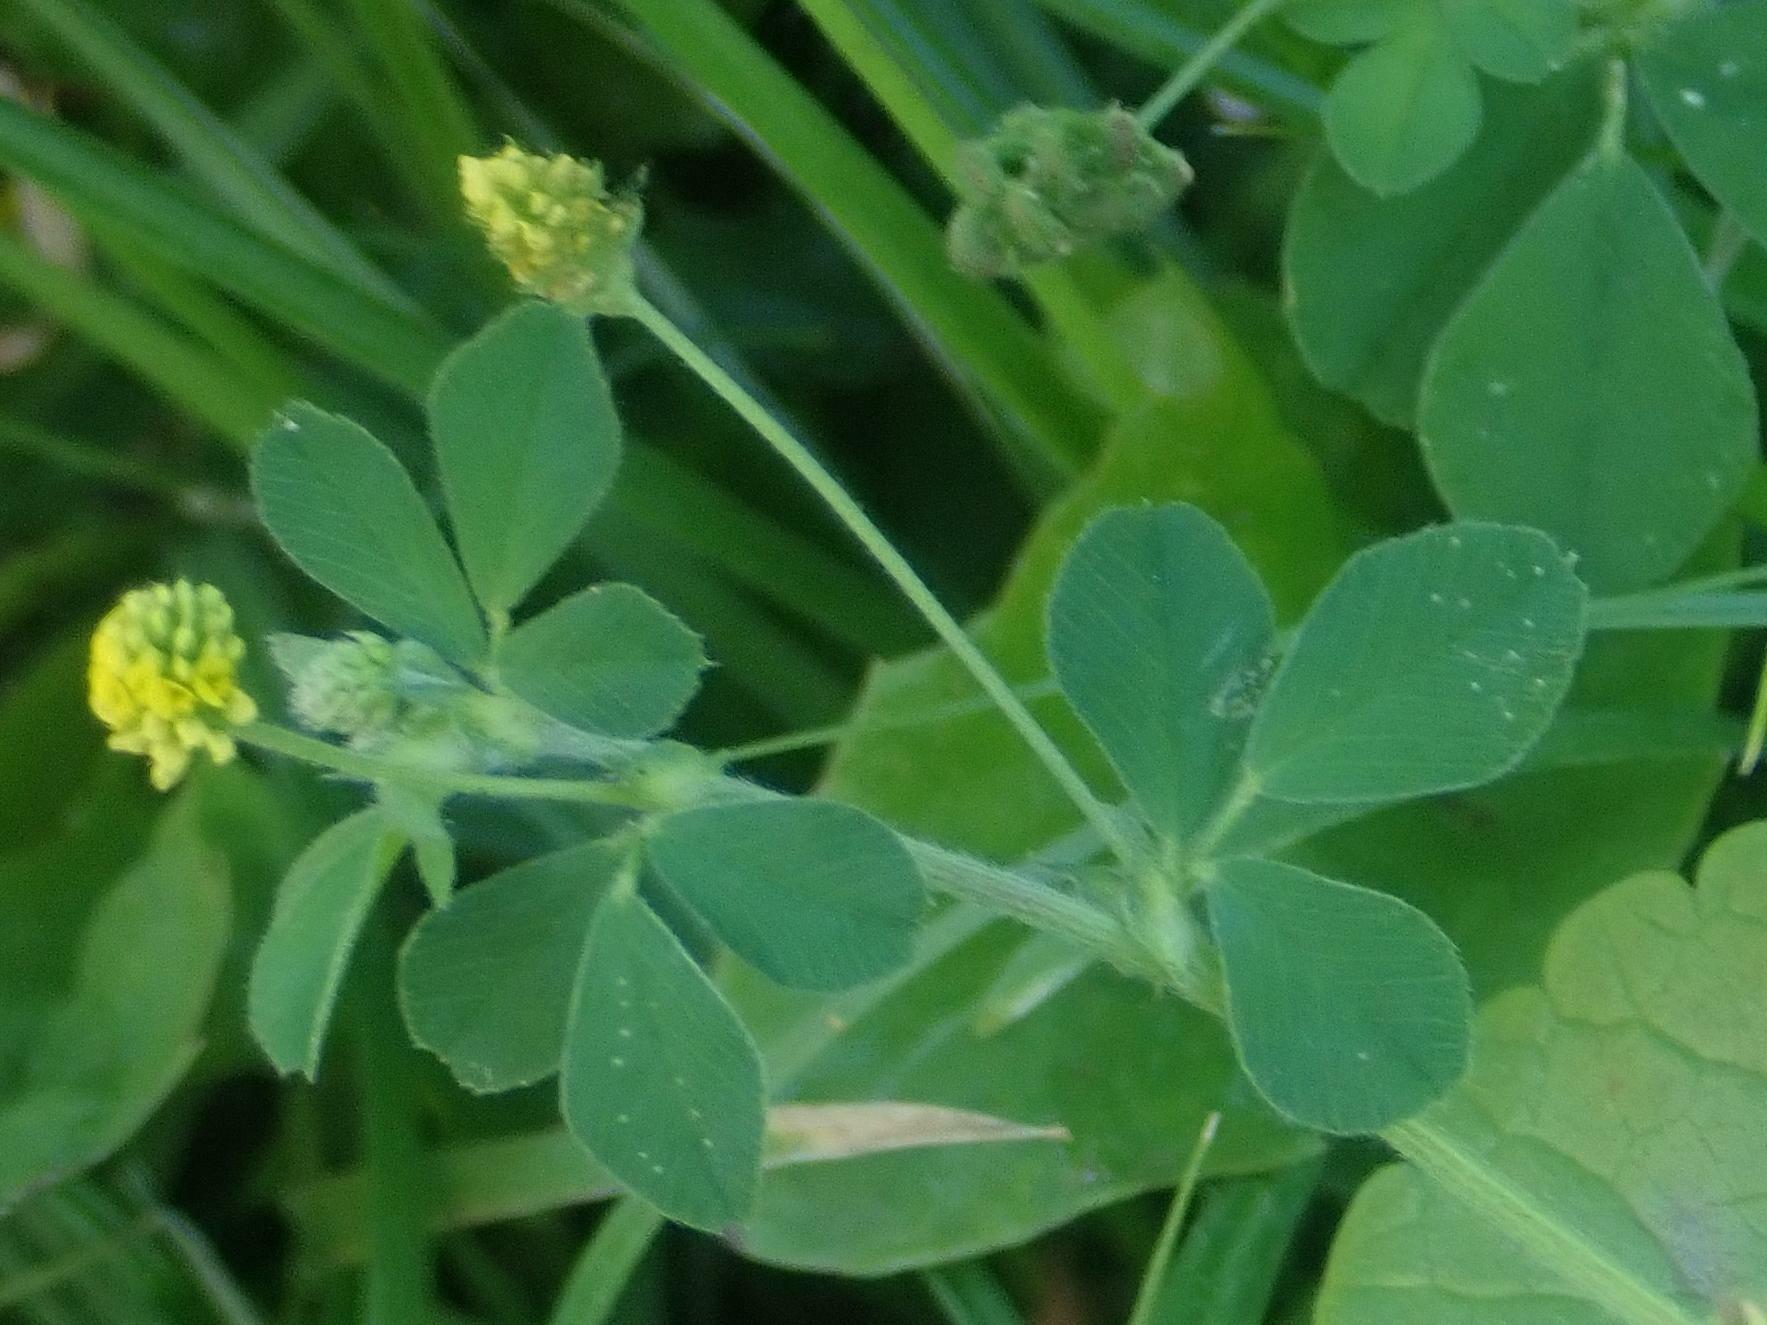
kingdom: Plantae
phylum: Tracheophyta
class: Magnoliopsida
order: Fabales
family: Fabaceae
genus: Medicago
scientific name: Medicago lupulina
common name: Black medick
